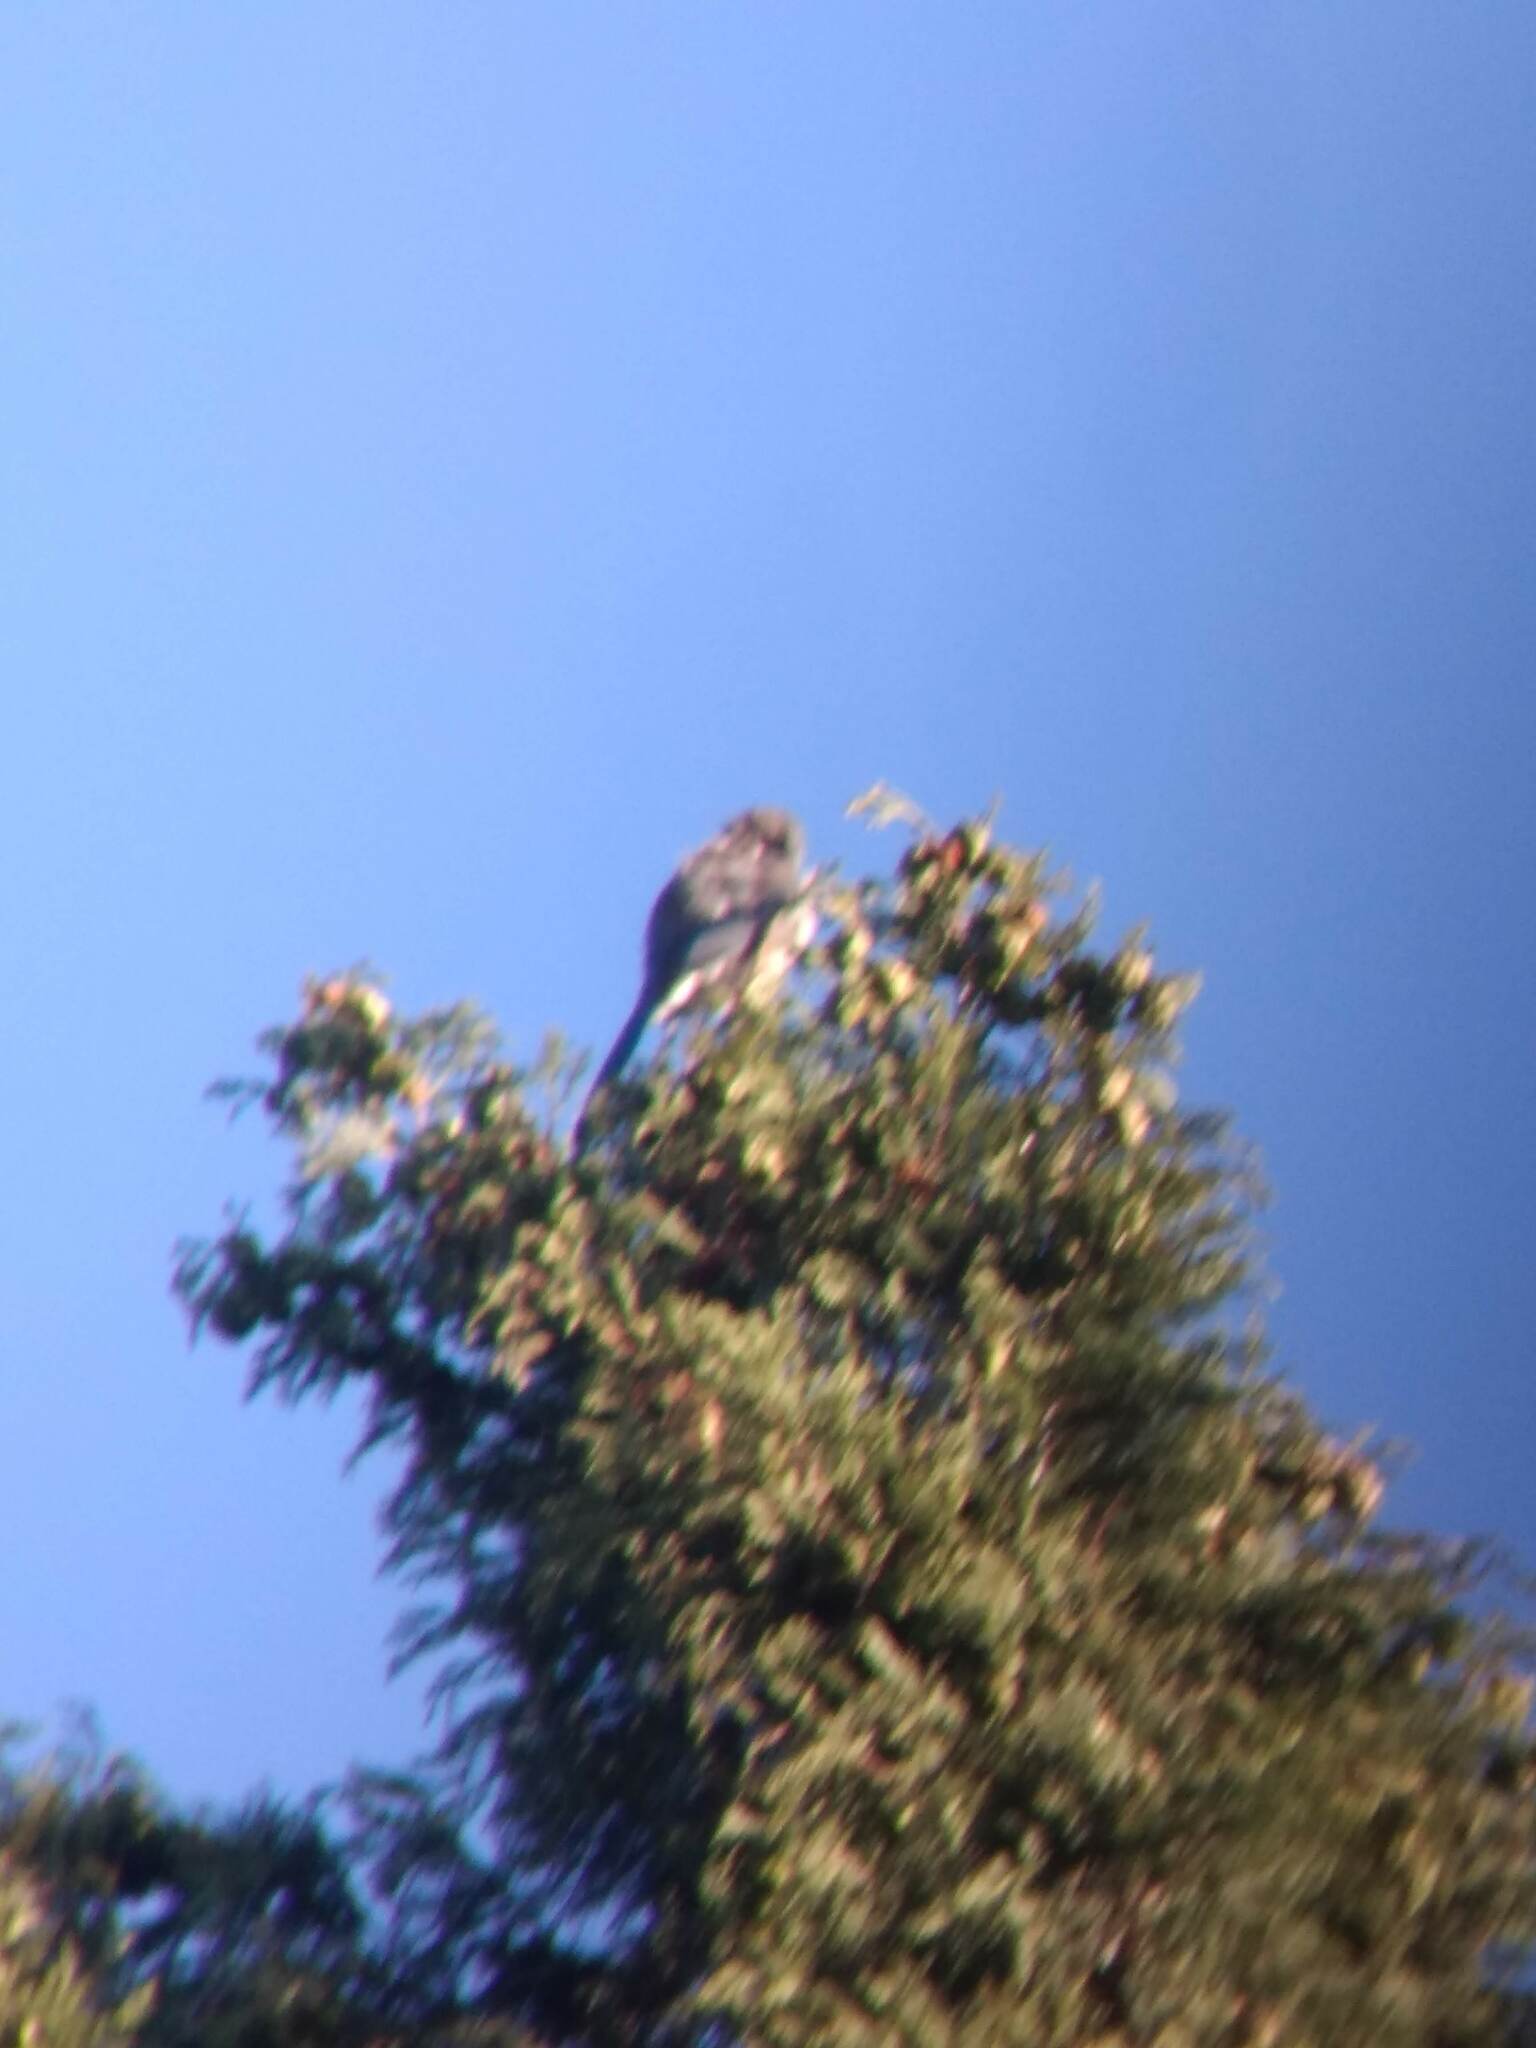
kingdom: Animalia
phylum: Chordata
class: Aves
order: Passeriformes
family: Corvidae
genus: Aphelocoma
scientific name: Aphelocoma californica
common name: California scrub-jay
